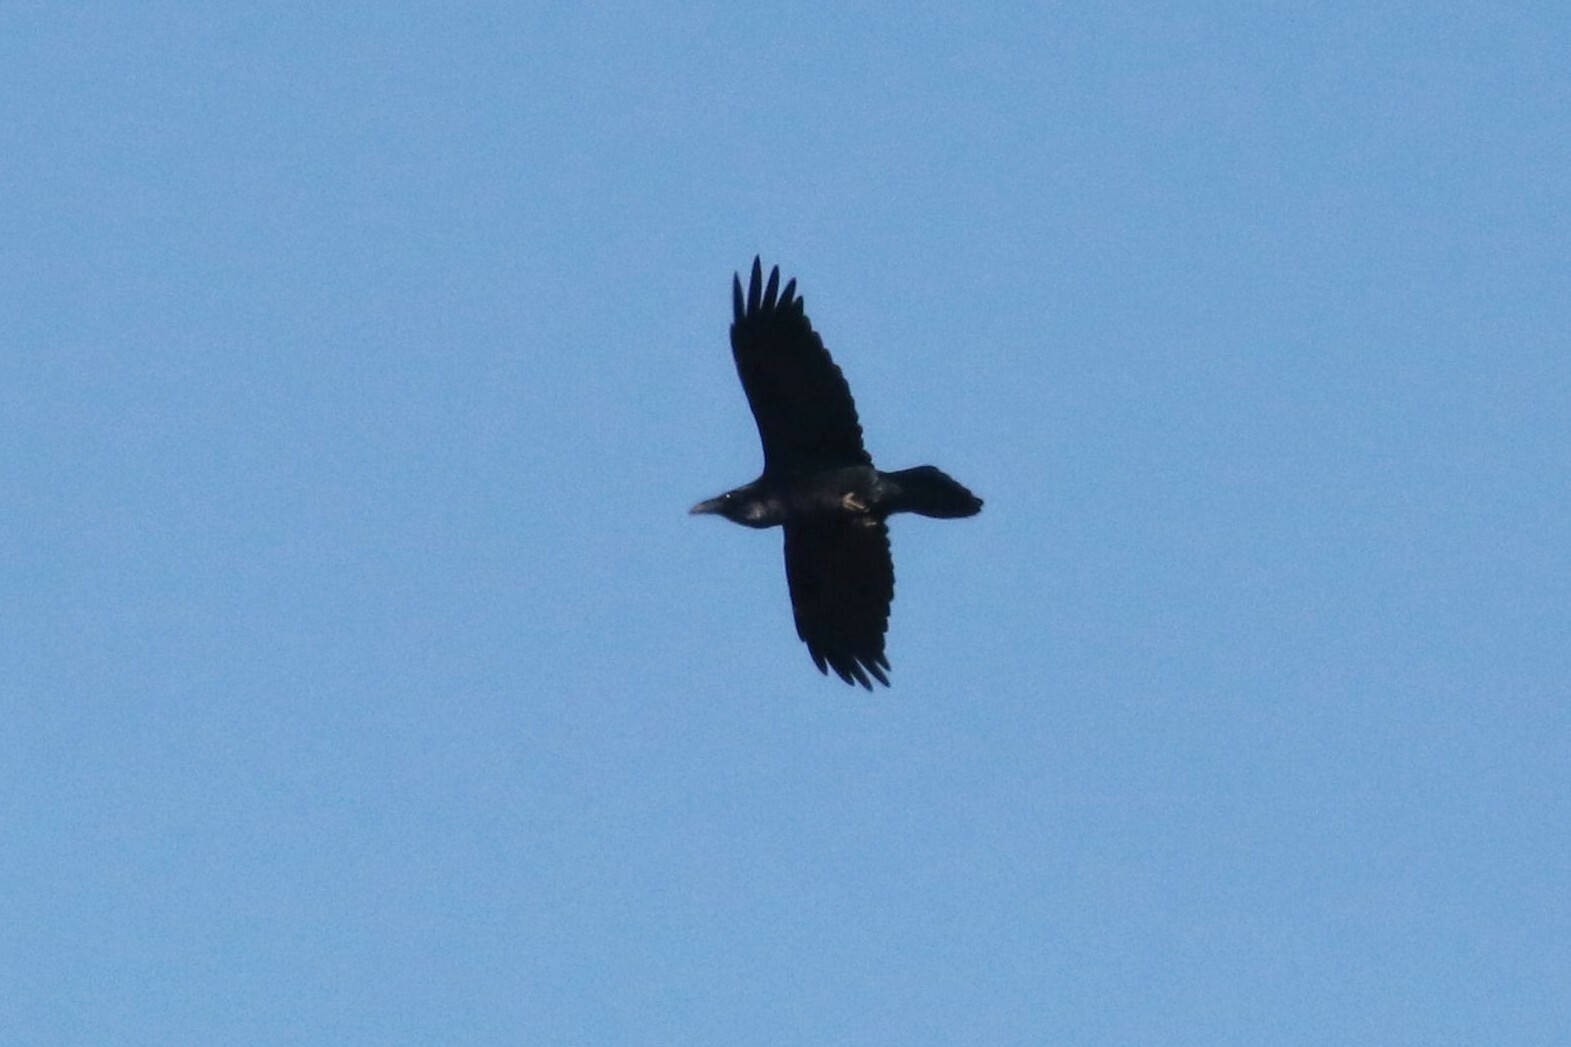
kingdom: Animalia
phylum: Chordata
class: Aves
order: Passeriformes
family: Corvidae
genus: Corvus
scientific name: Corvus corax
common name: Common raven
